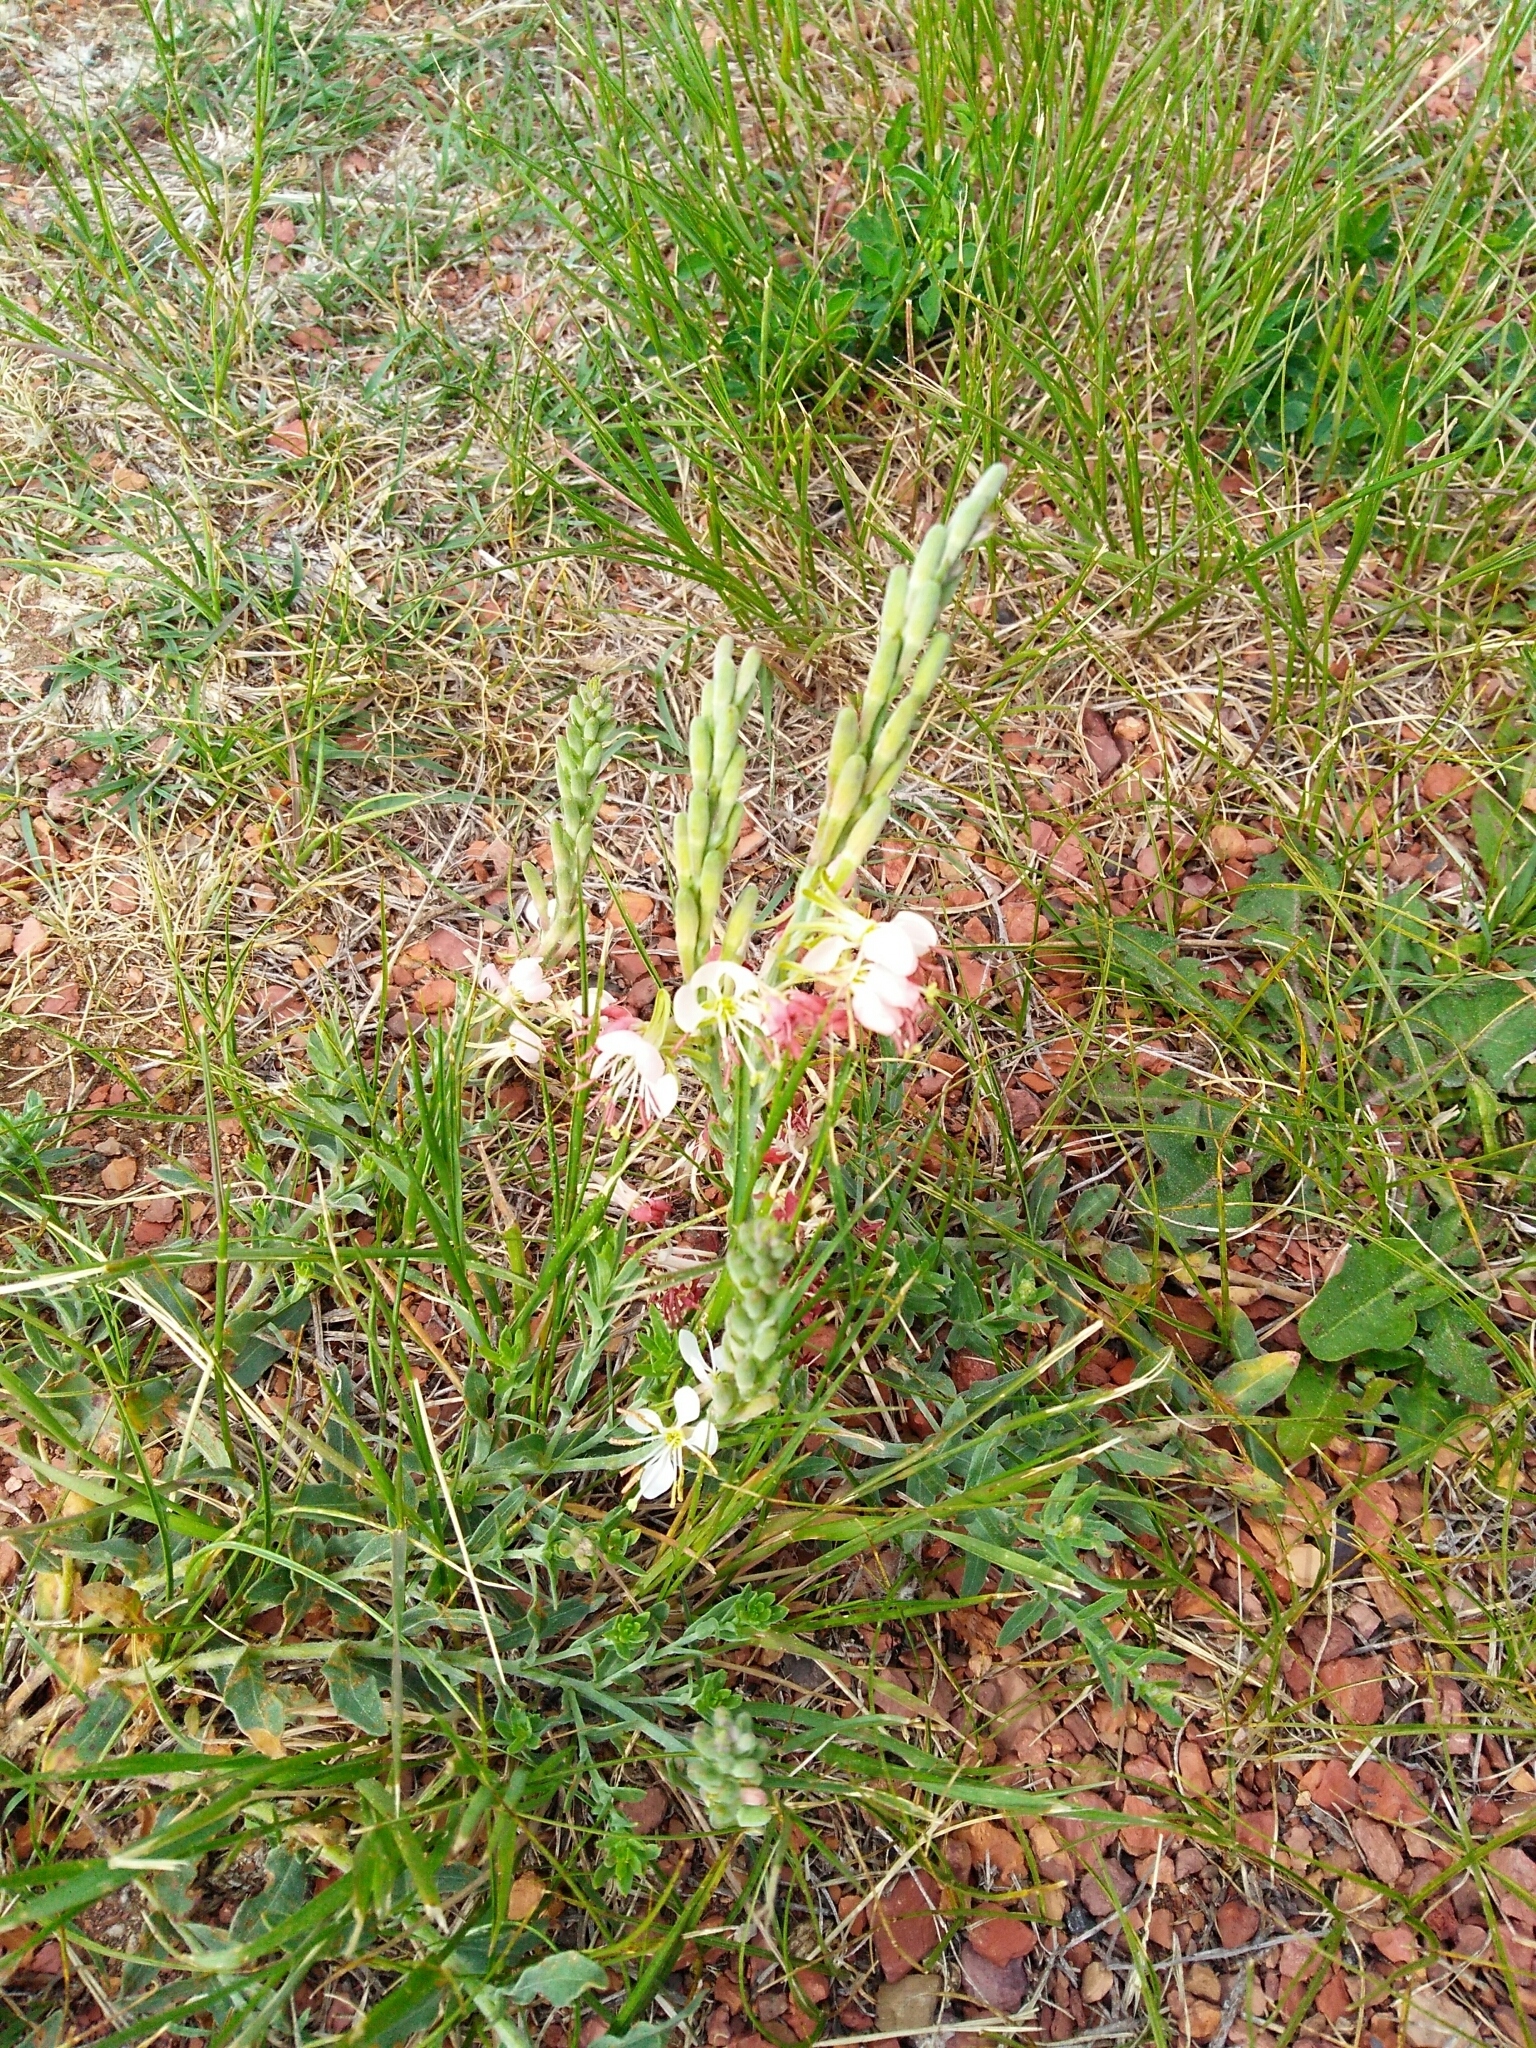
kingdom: Plantae
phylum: Tracheophyta
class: Magnoliopsida
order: Myrtales
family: Onagraceae
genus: Oenothera
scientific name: Oenothera suffrutescens
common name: Scarlet beeblossom
